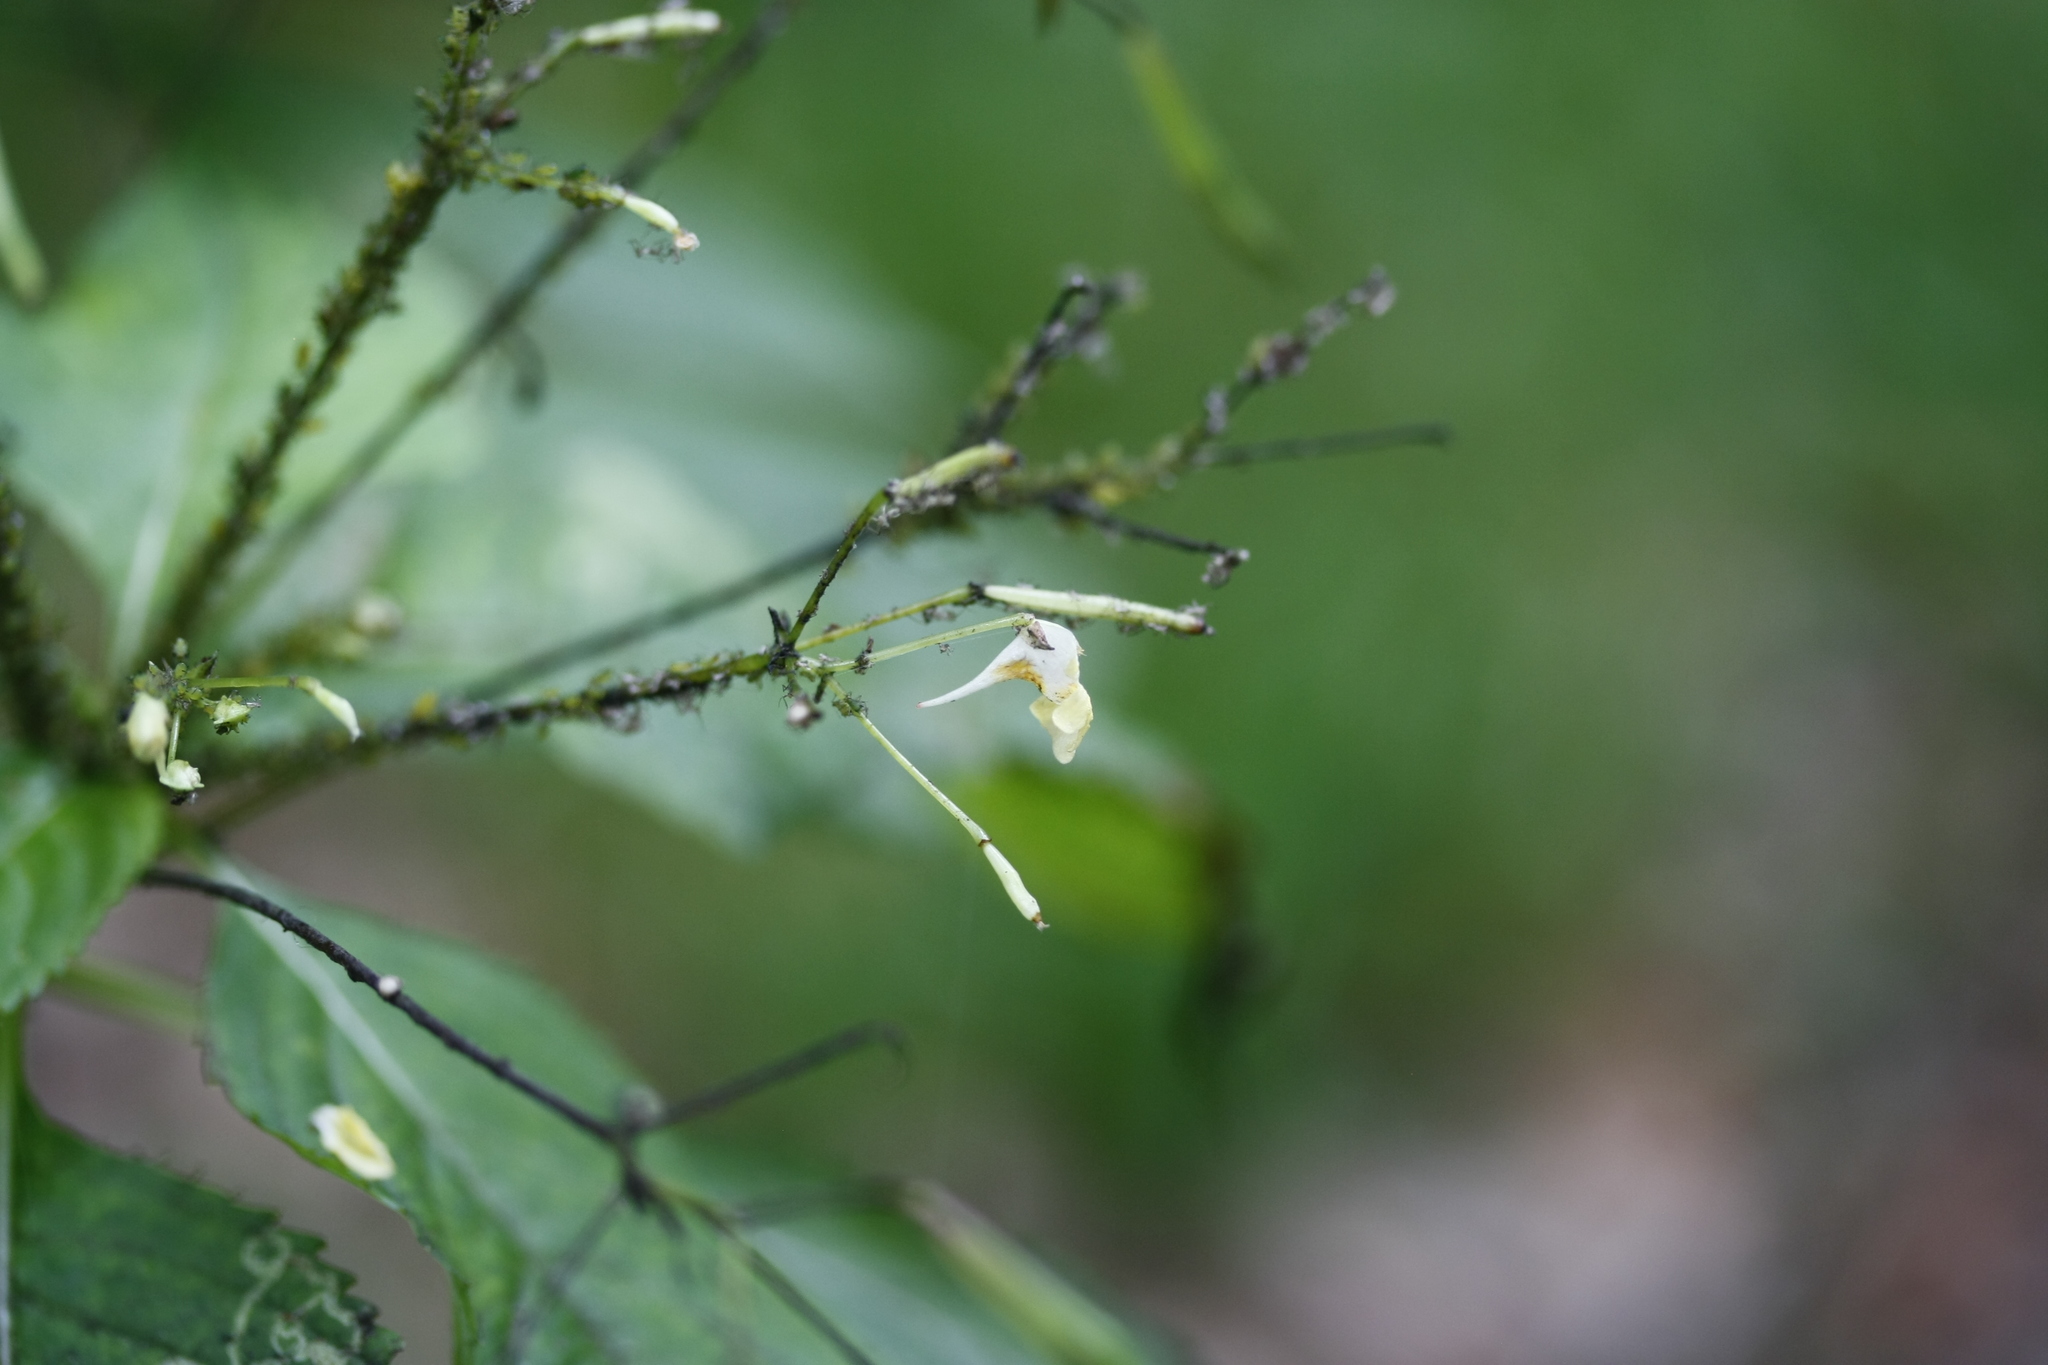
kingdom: Plantae
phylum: Tracheophyta
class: Magnoliopsida
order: Ericales
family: Balsaminaceae
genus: Impatiens
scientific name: Impatiens parviflora
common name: Small balsam
